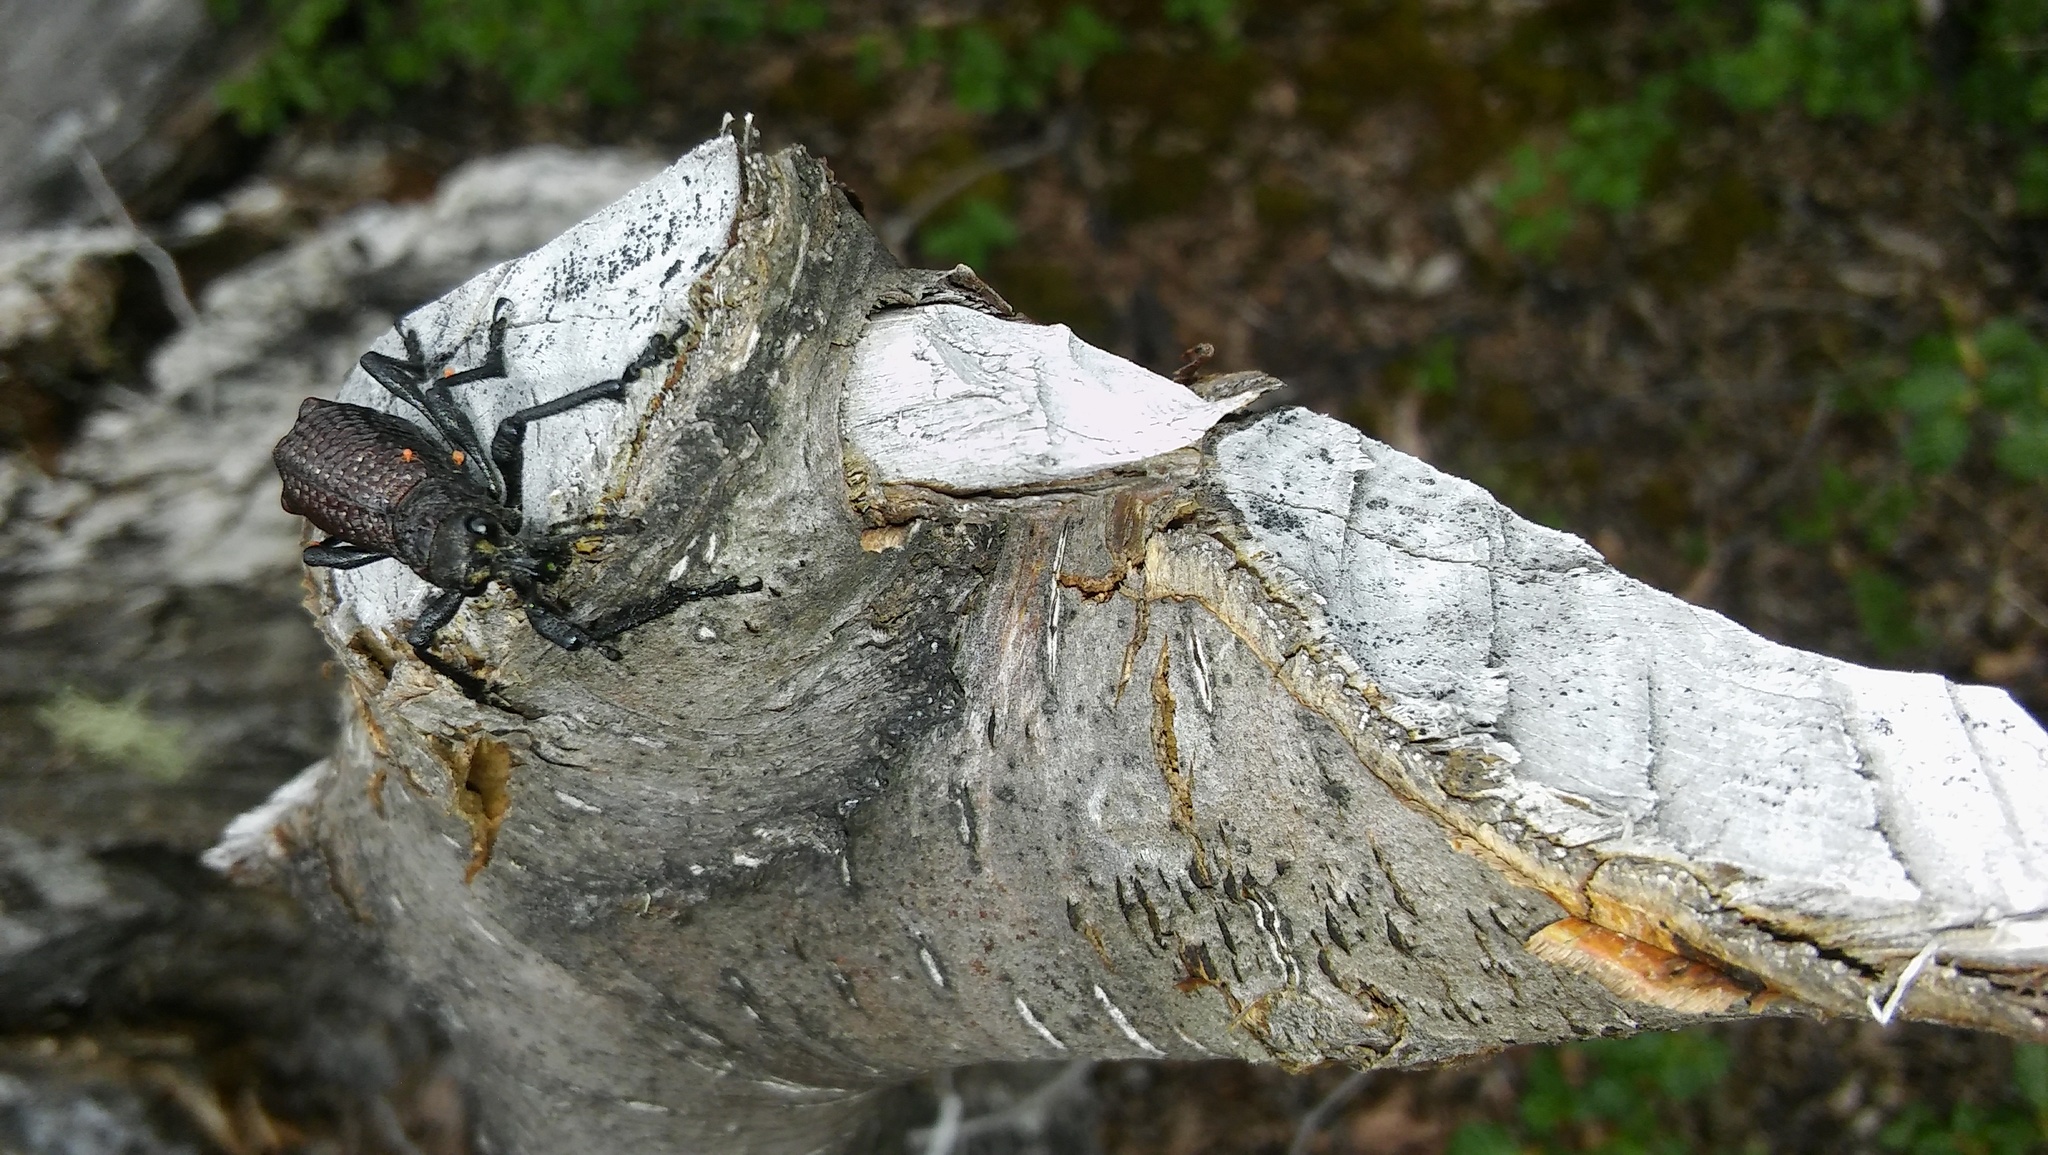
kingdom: Animalia
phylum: Arthropoda
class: Insecta
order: Coleoptera
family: Curculionidae
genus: Aegorhinus
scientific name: Aegorhinus vitulus
